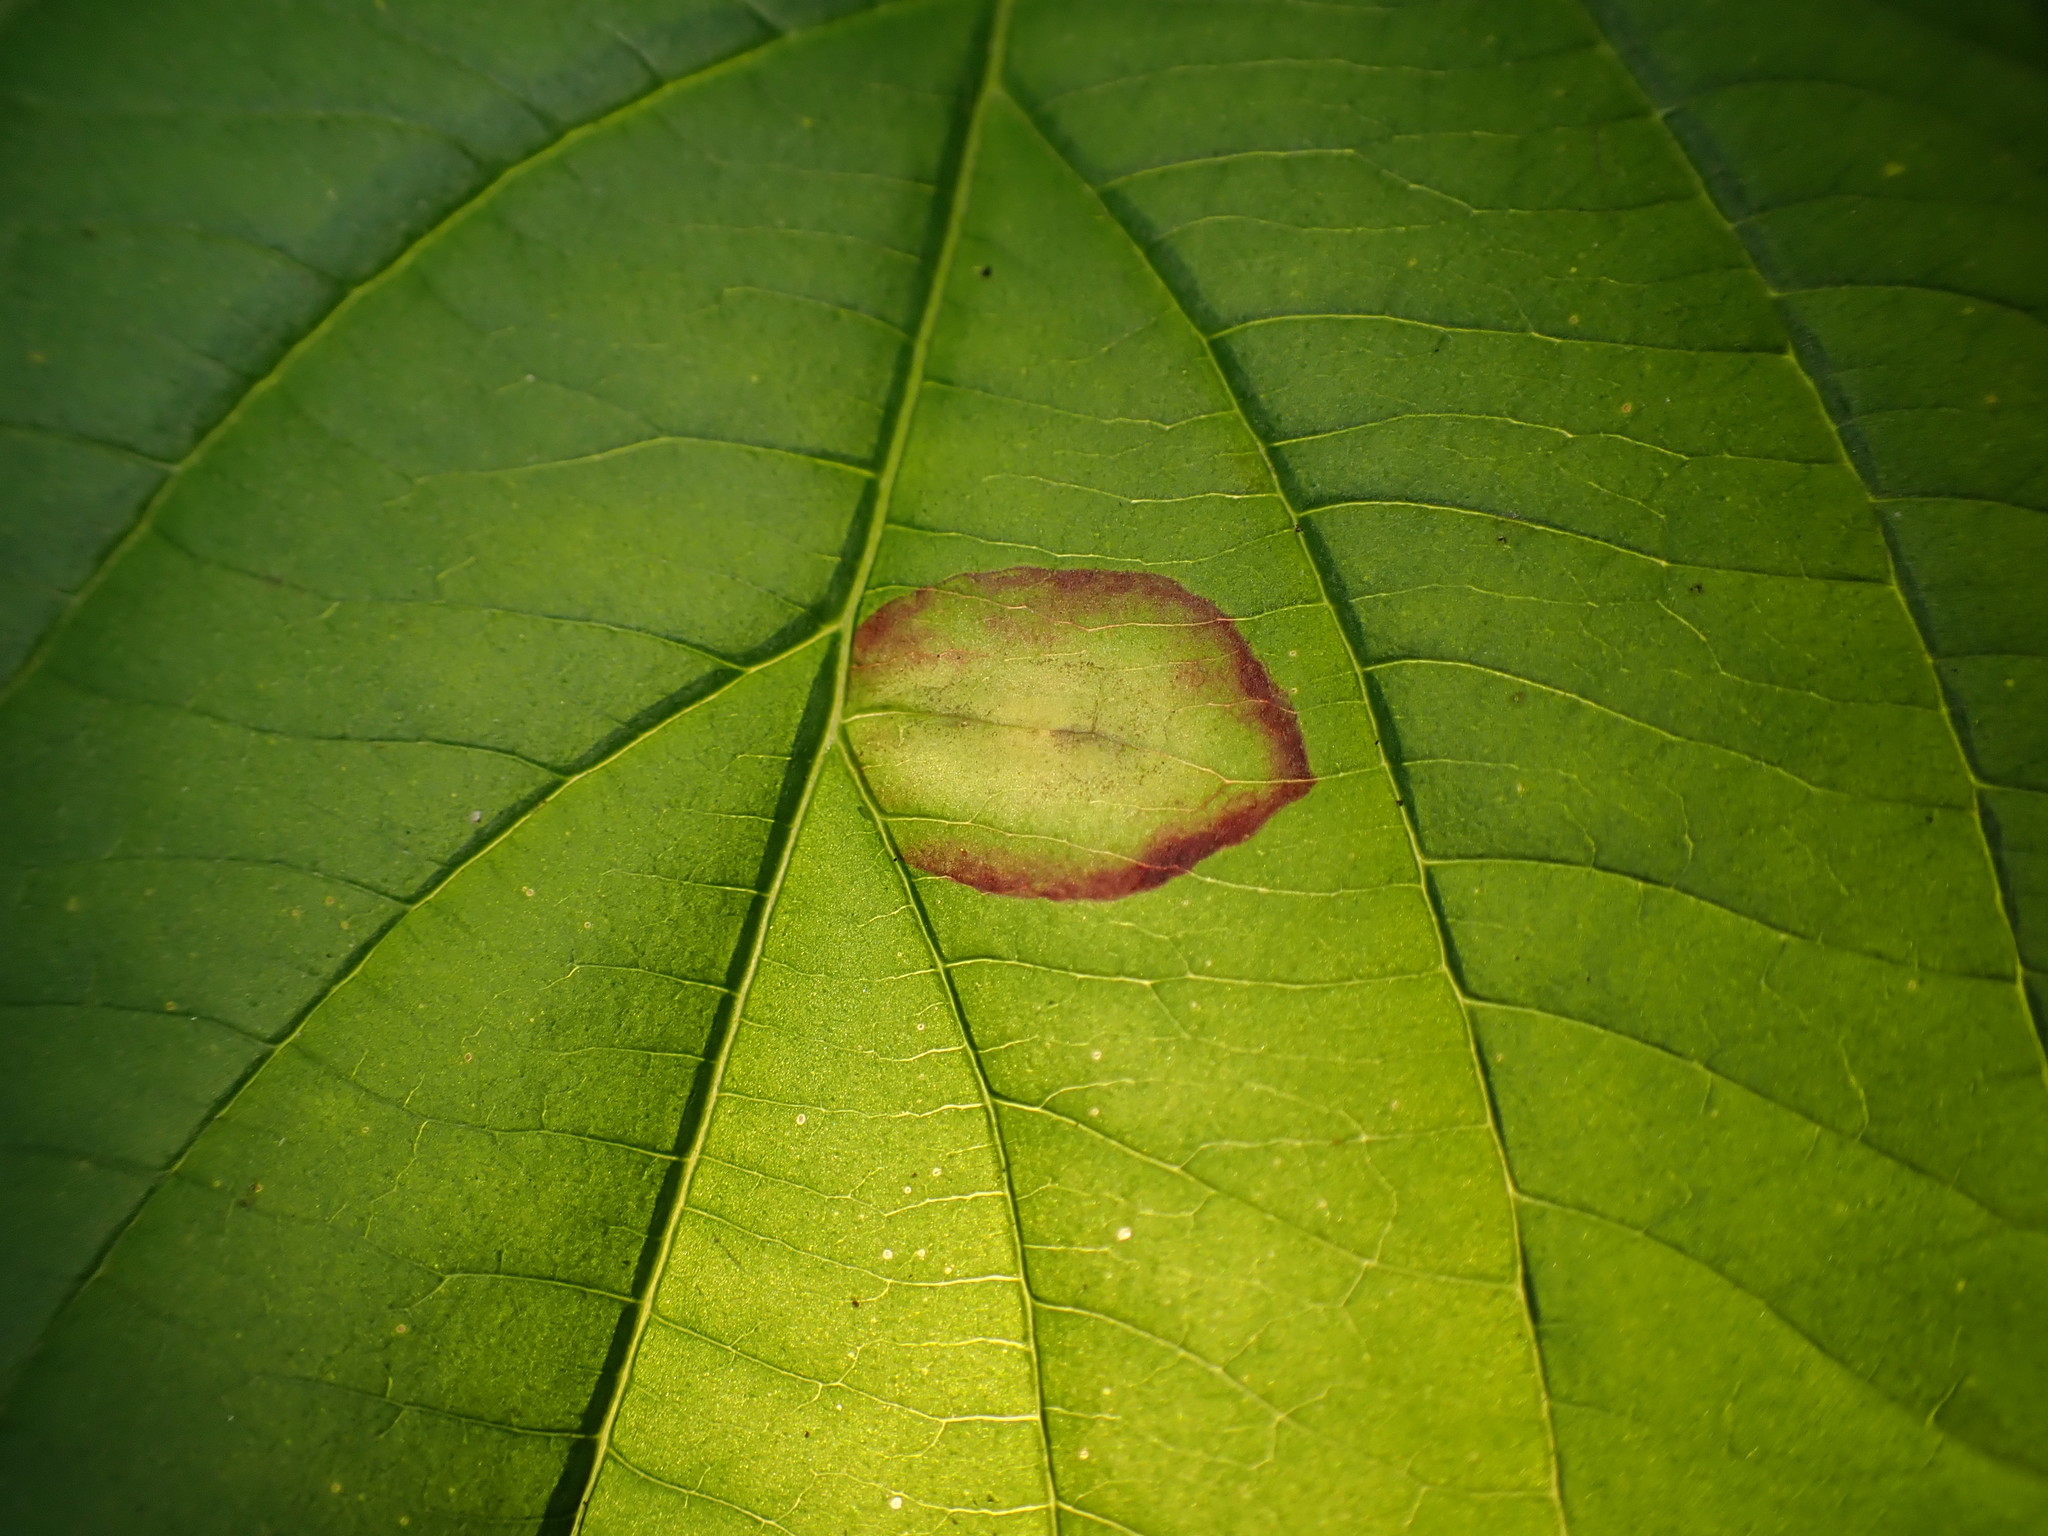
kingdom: Animalia
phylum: Arthropoda
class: Insecta
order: Diptera
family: Cecidomyiidae
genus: Parallelodiplosis
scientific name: Parallelodiplosis subtruncata
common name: Dogwood eyespot gall midge
